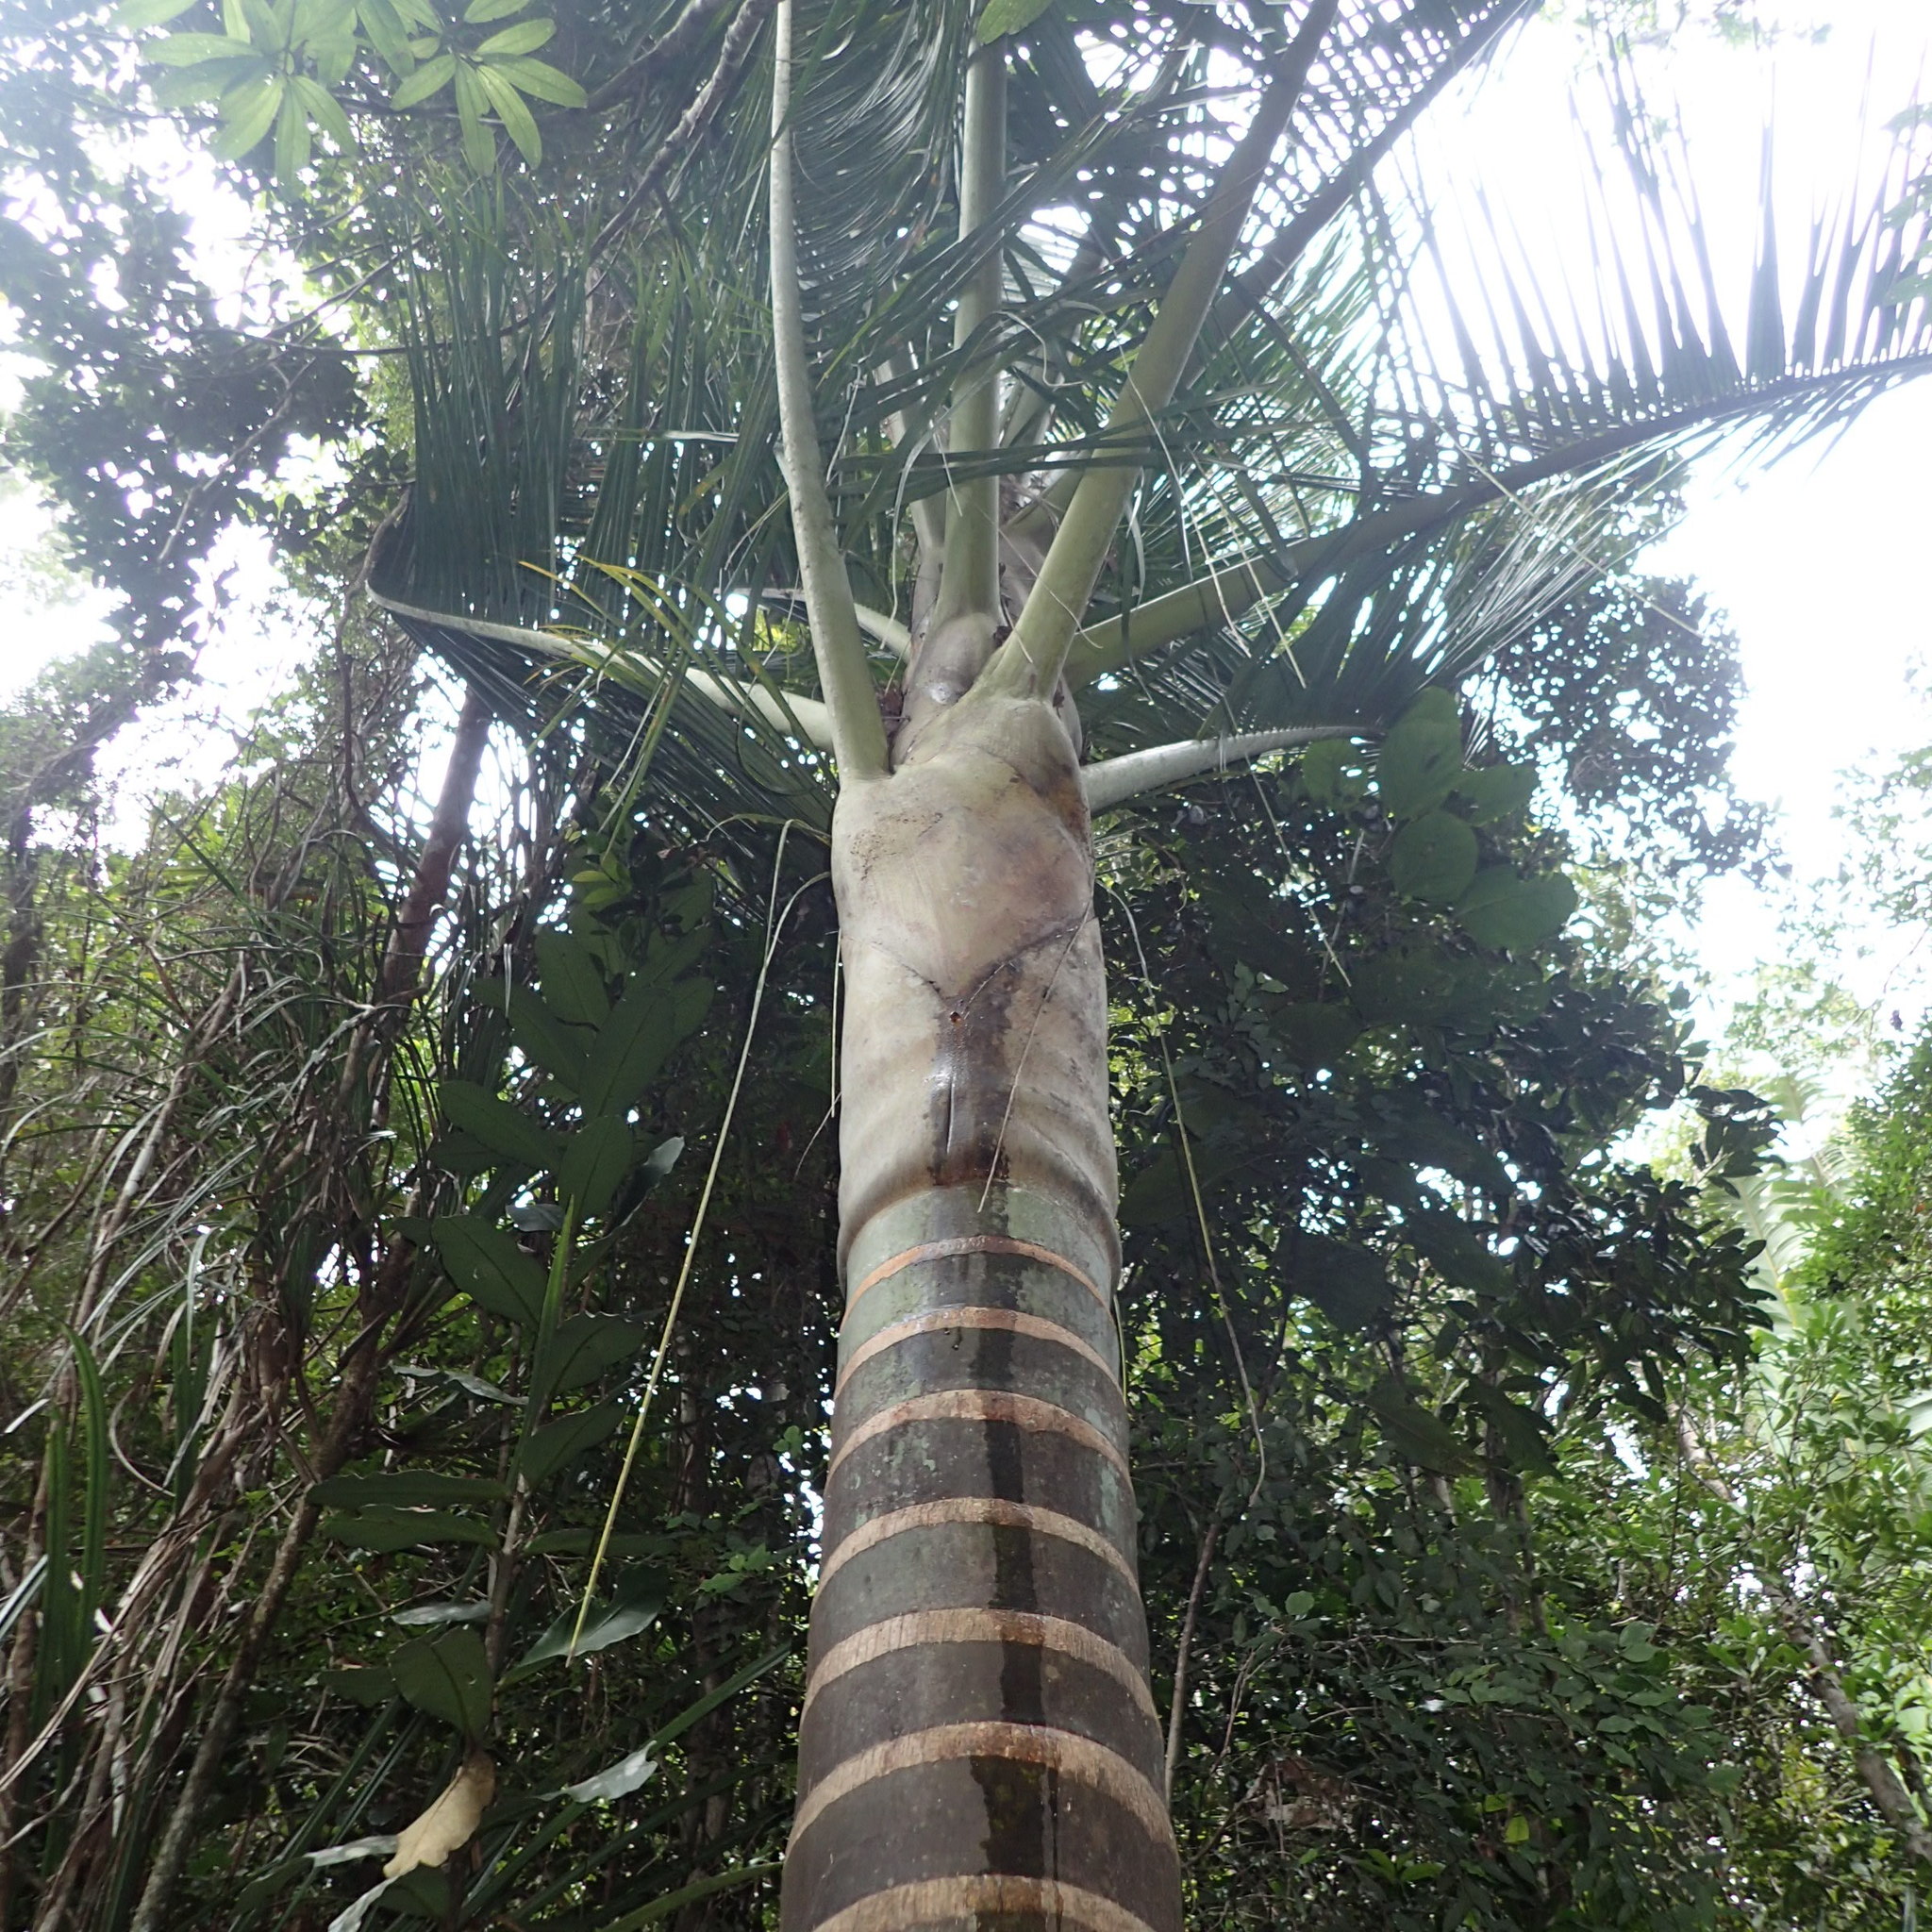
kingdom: Plantae
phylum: Tracheophyta
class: Liliopsida
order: Arecales
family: Arecaceae
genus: Dypsis
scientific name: Dypsis bejofo
